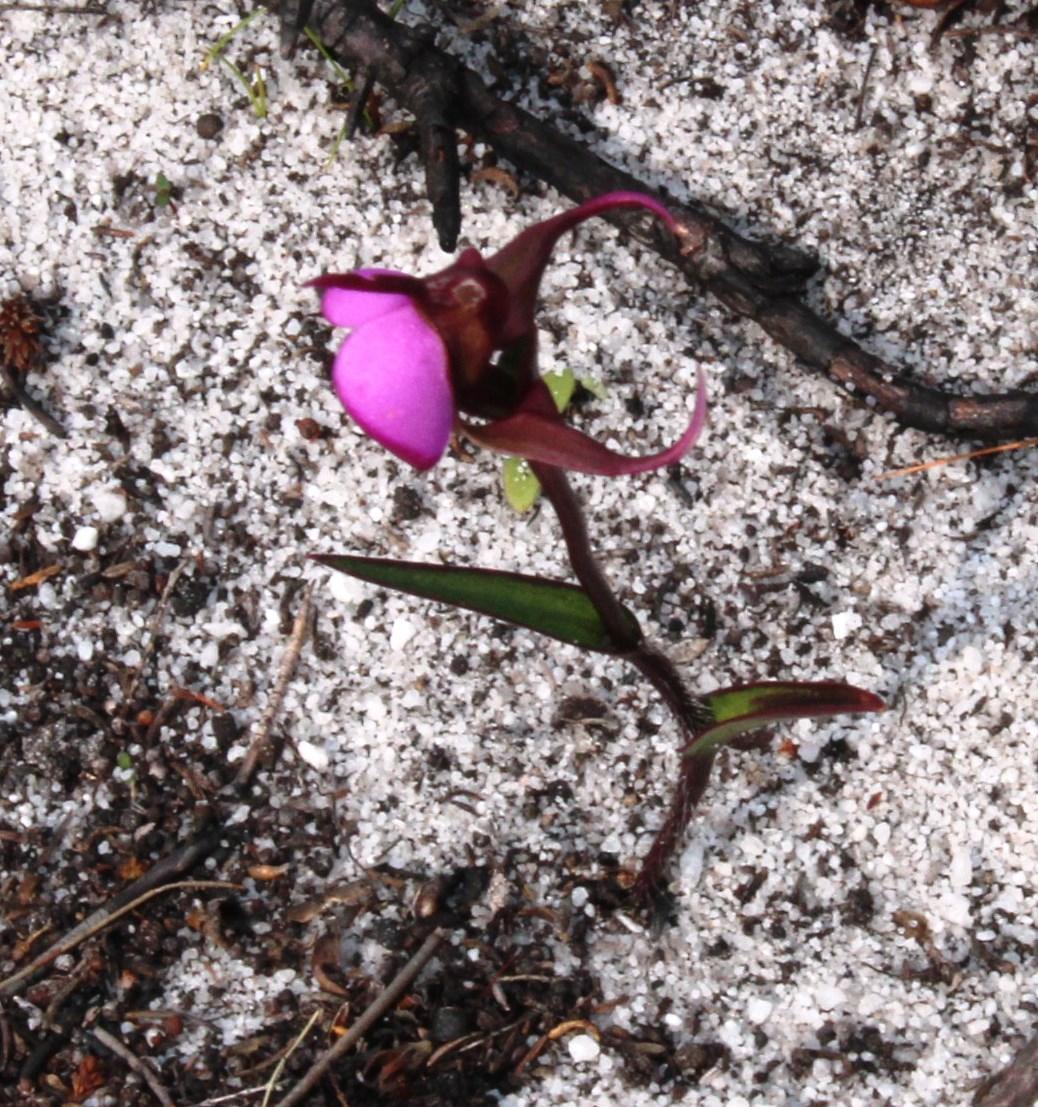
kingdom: Plantae
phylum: Tracheophyta
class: Liliopsida
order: Asparagales
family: Orchidaceae
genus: Disperis
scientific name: Disperis capensis
